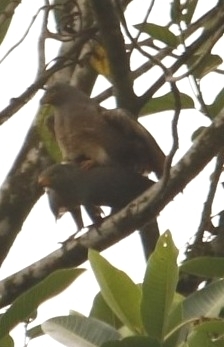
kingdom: Animalia
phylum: Chordata
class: Aves
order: Accipitriformes
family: Accipitridae
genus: Rupornis
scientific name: Rupornis magnirostris
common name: Roadside hawk
